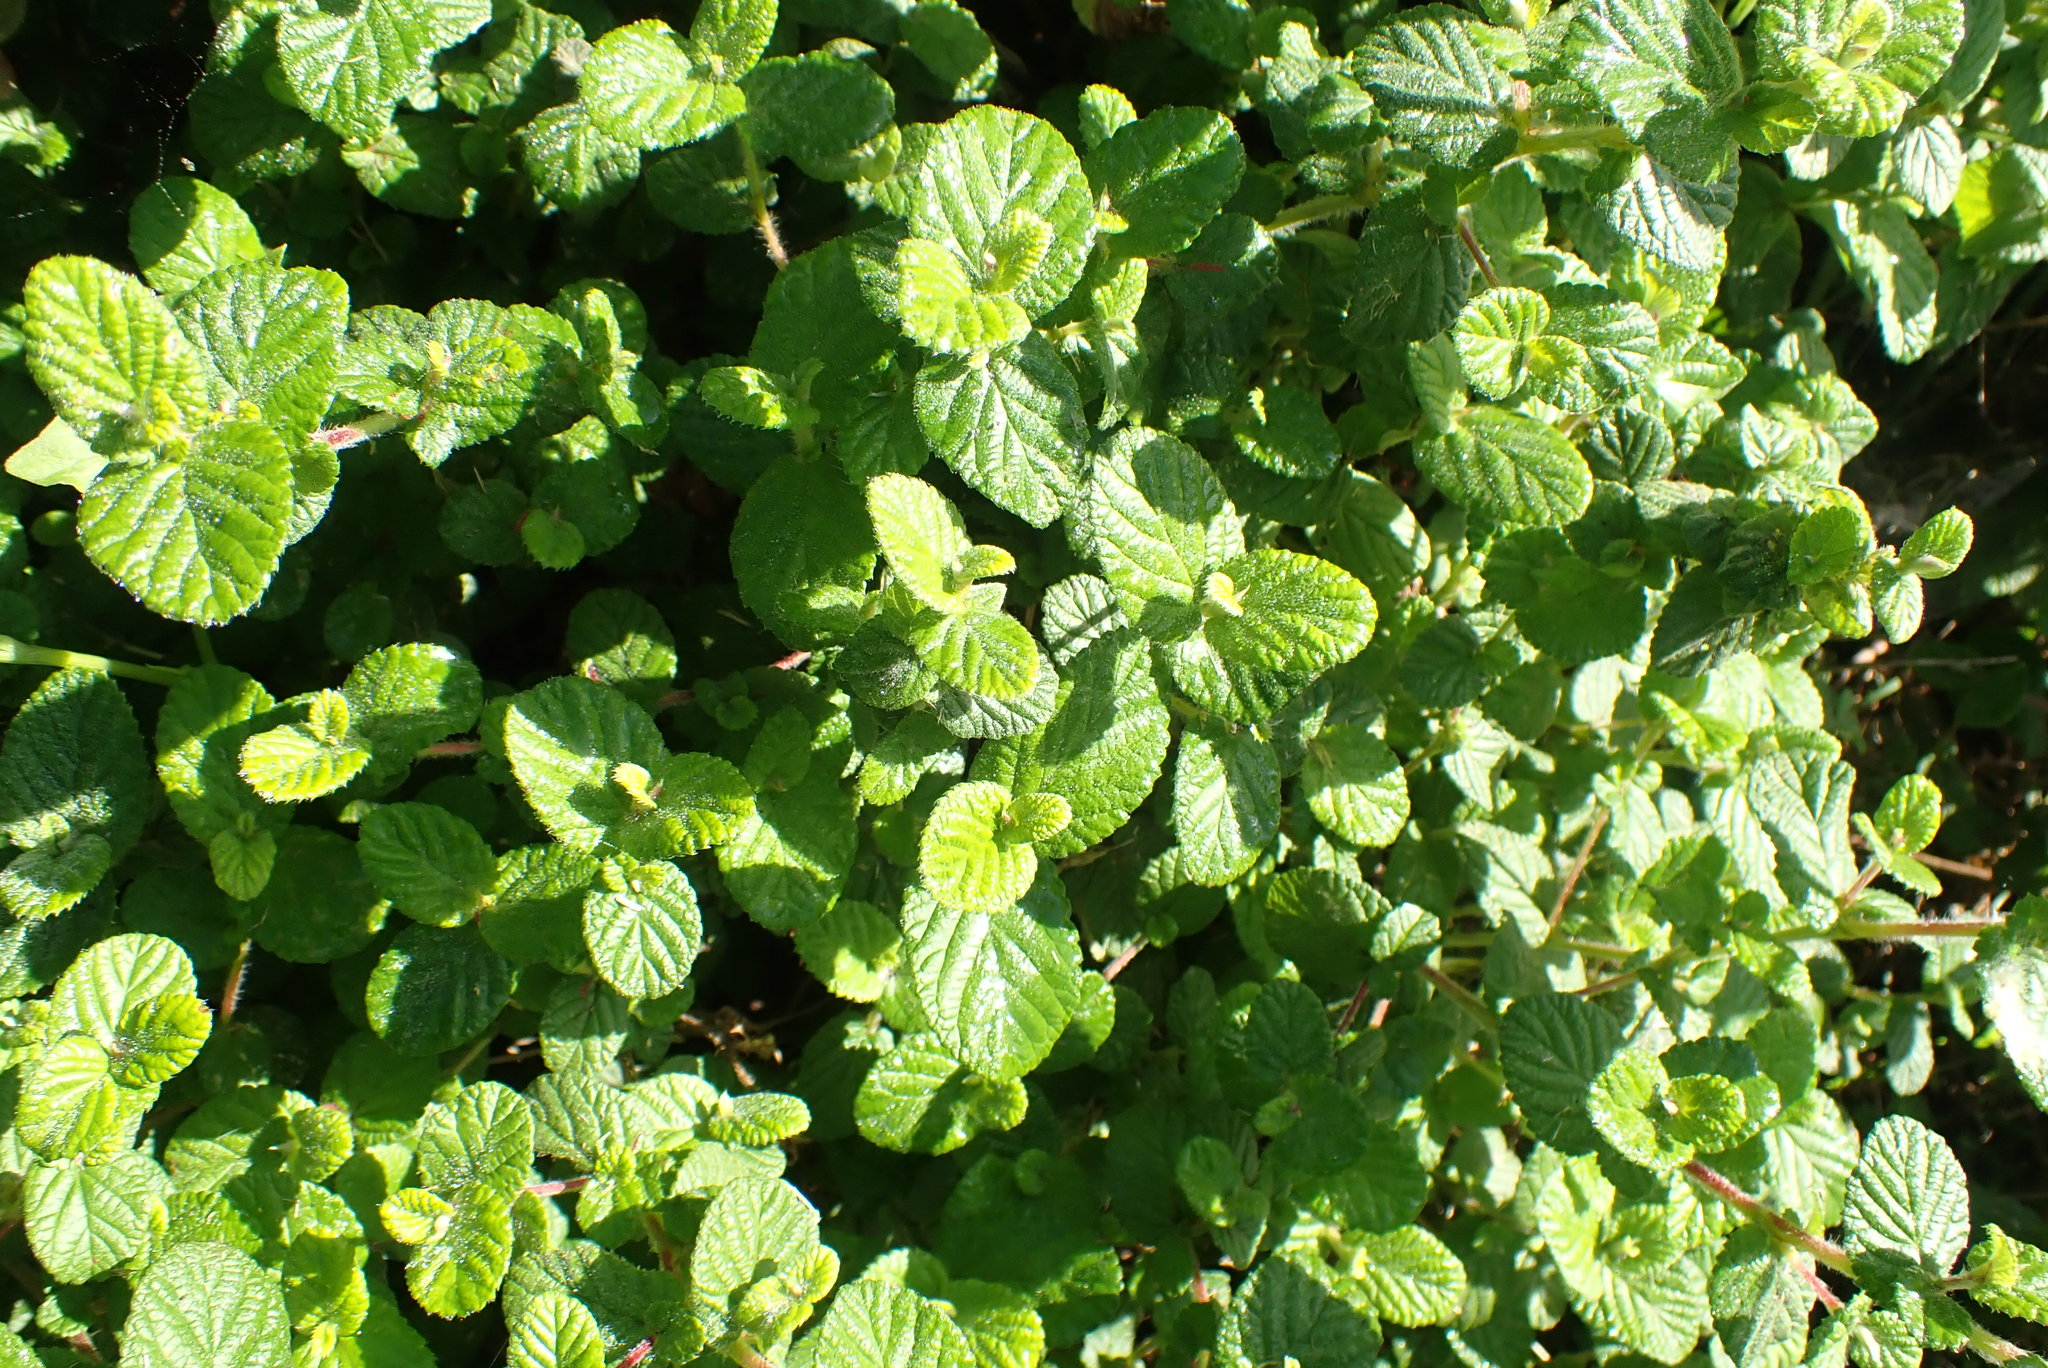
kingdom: Plantae
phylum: Tracheophyta
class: Magnoliopsida
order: Rosales
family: Rosaceae
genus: Cliffortia
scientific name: Cliffortia odorata
